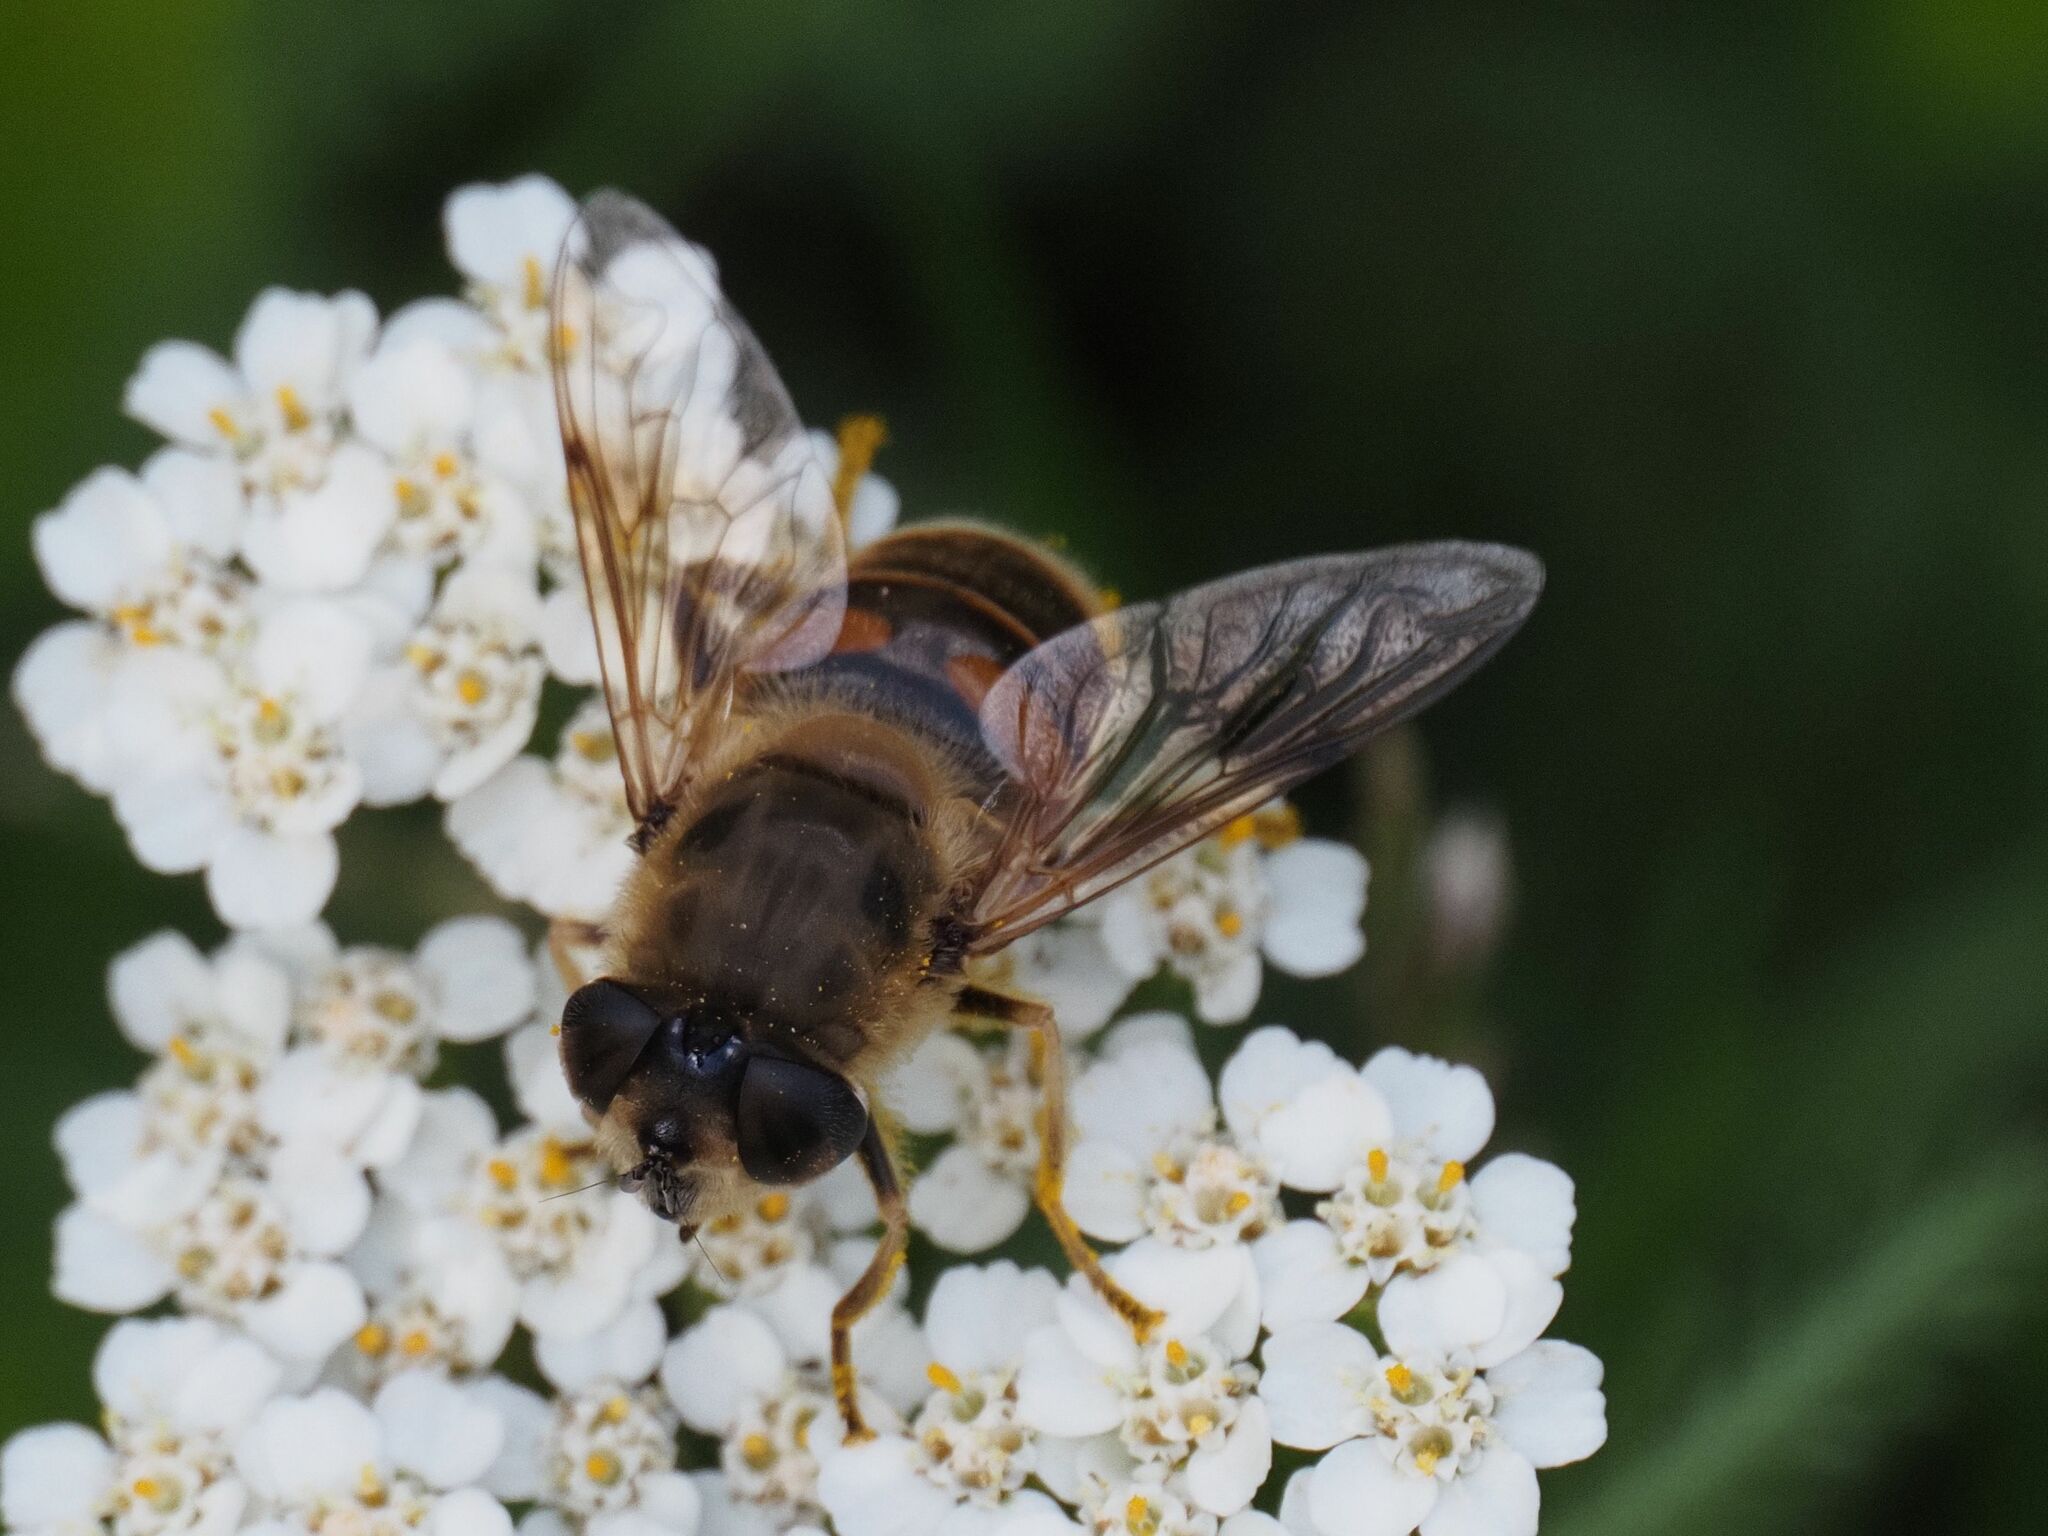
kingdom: Animalia
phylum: Arthropoda
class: Insecta
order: Diptera
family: Syrphidae
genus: Eristalis
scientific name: Eristalis tenax
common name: Drone fly
